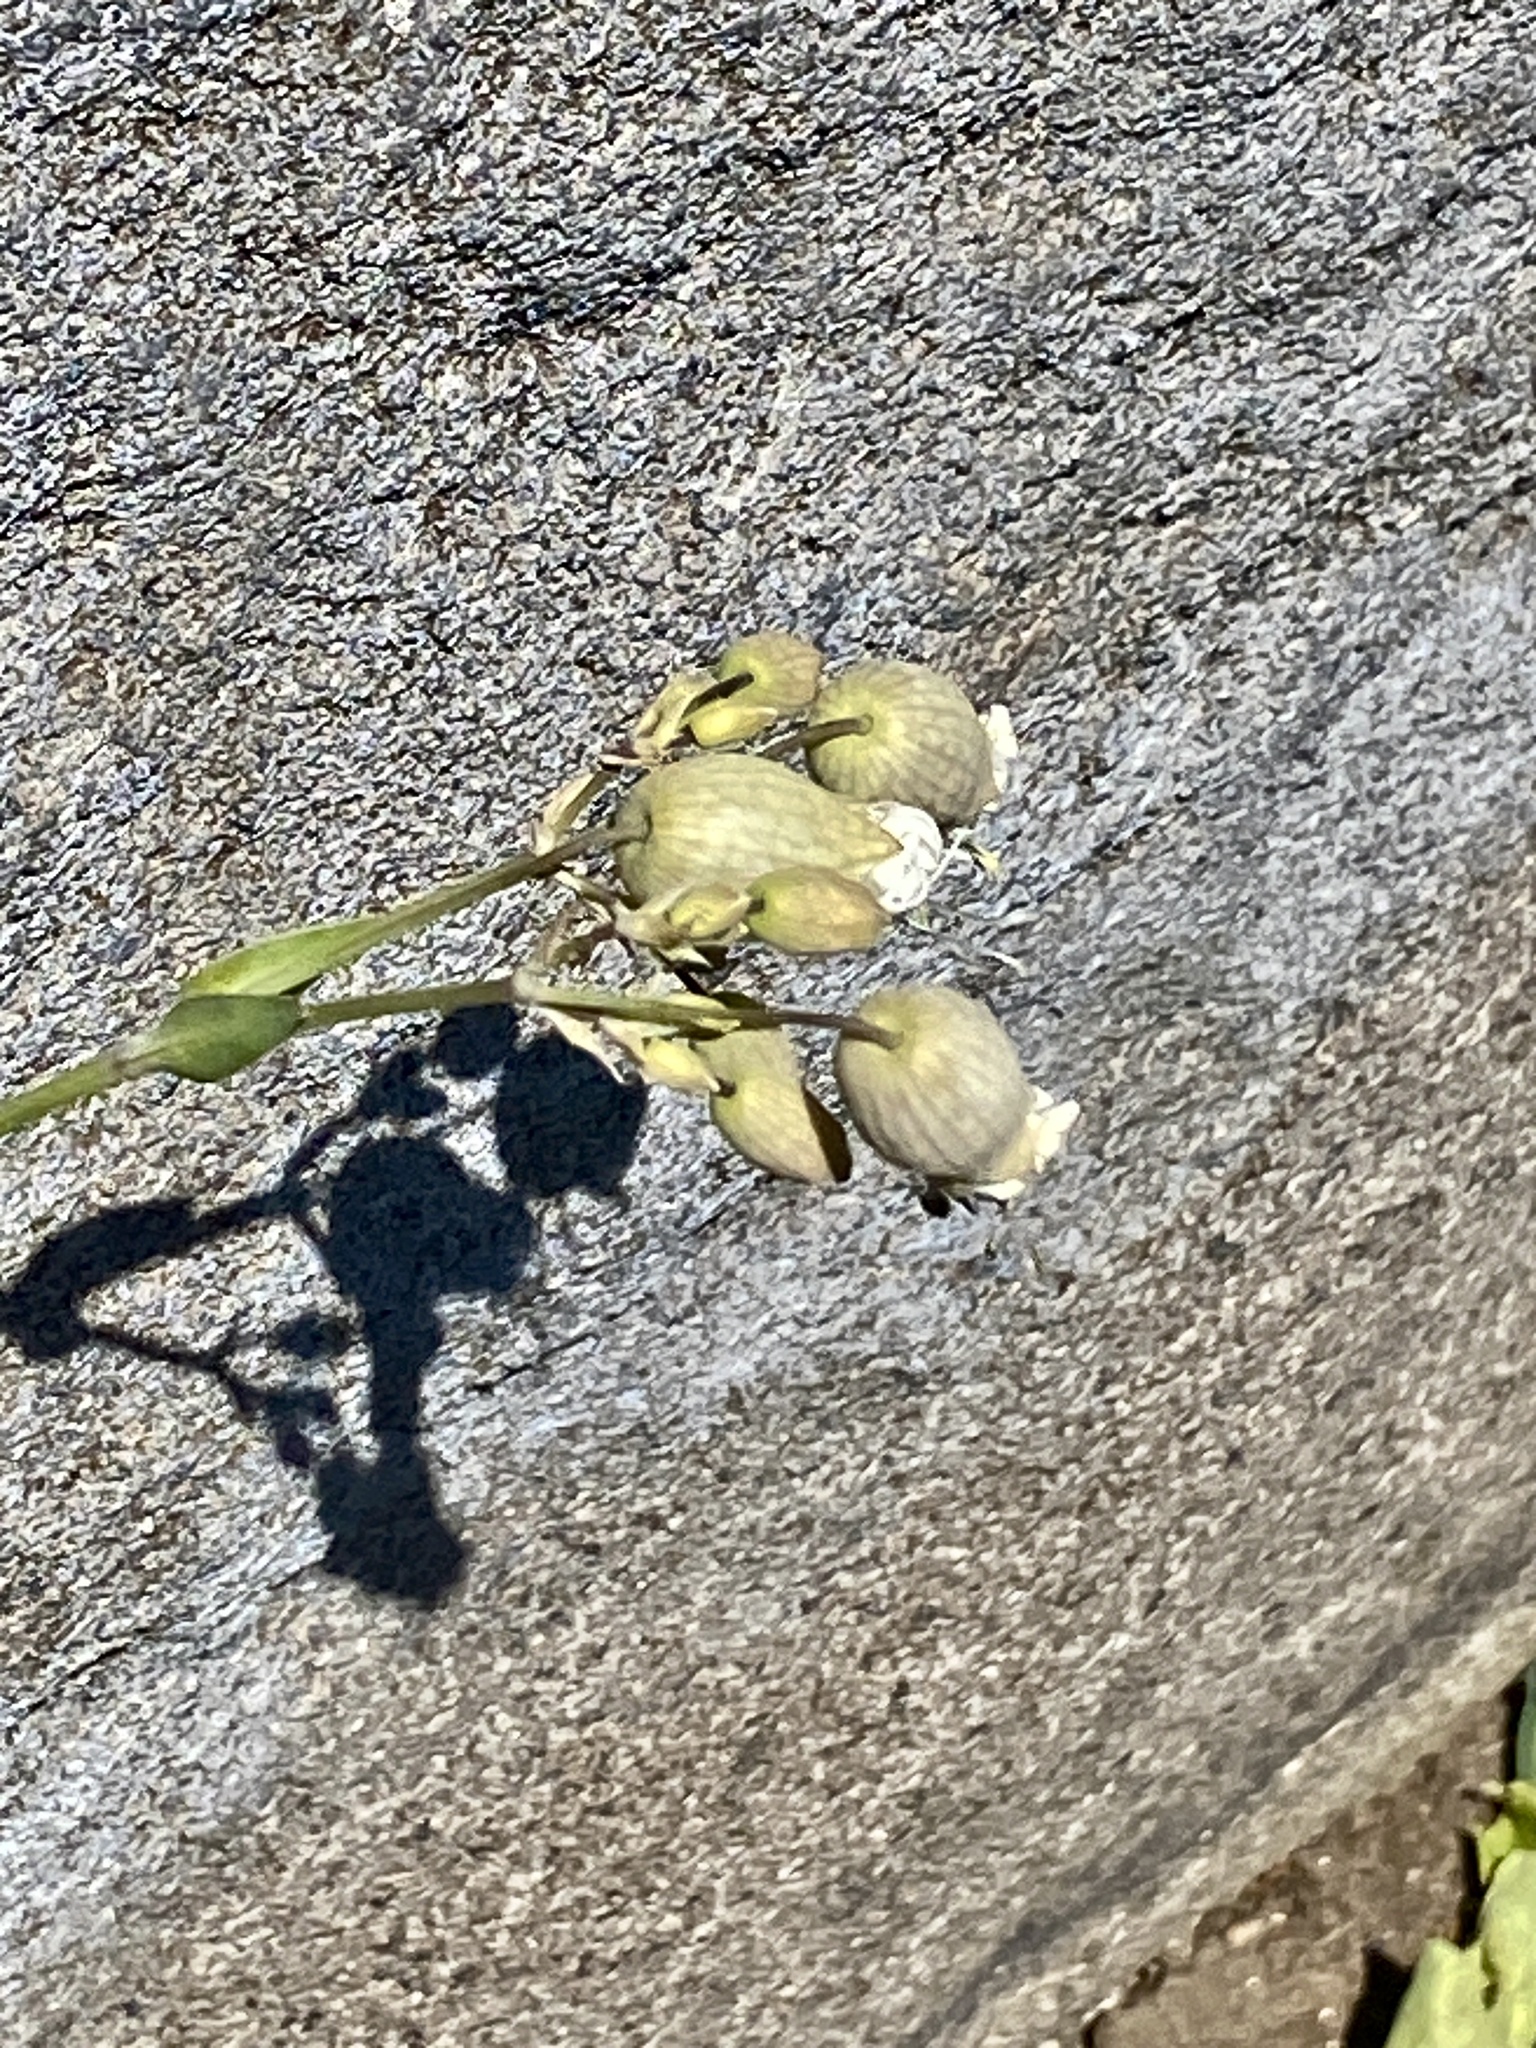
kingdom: Plantae
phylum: Tracheophyta
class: Magnoliopsida
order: Caryophyllales
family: Caryophyllaceae
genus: Silene
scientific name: Silene vulgaris
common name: Bladder campion
